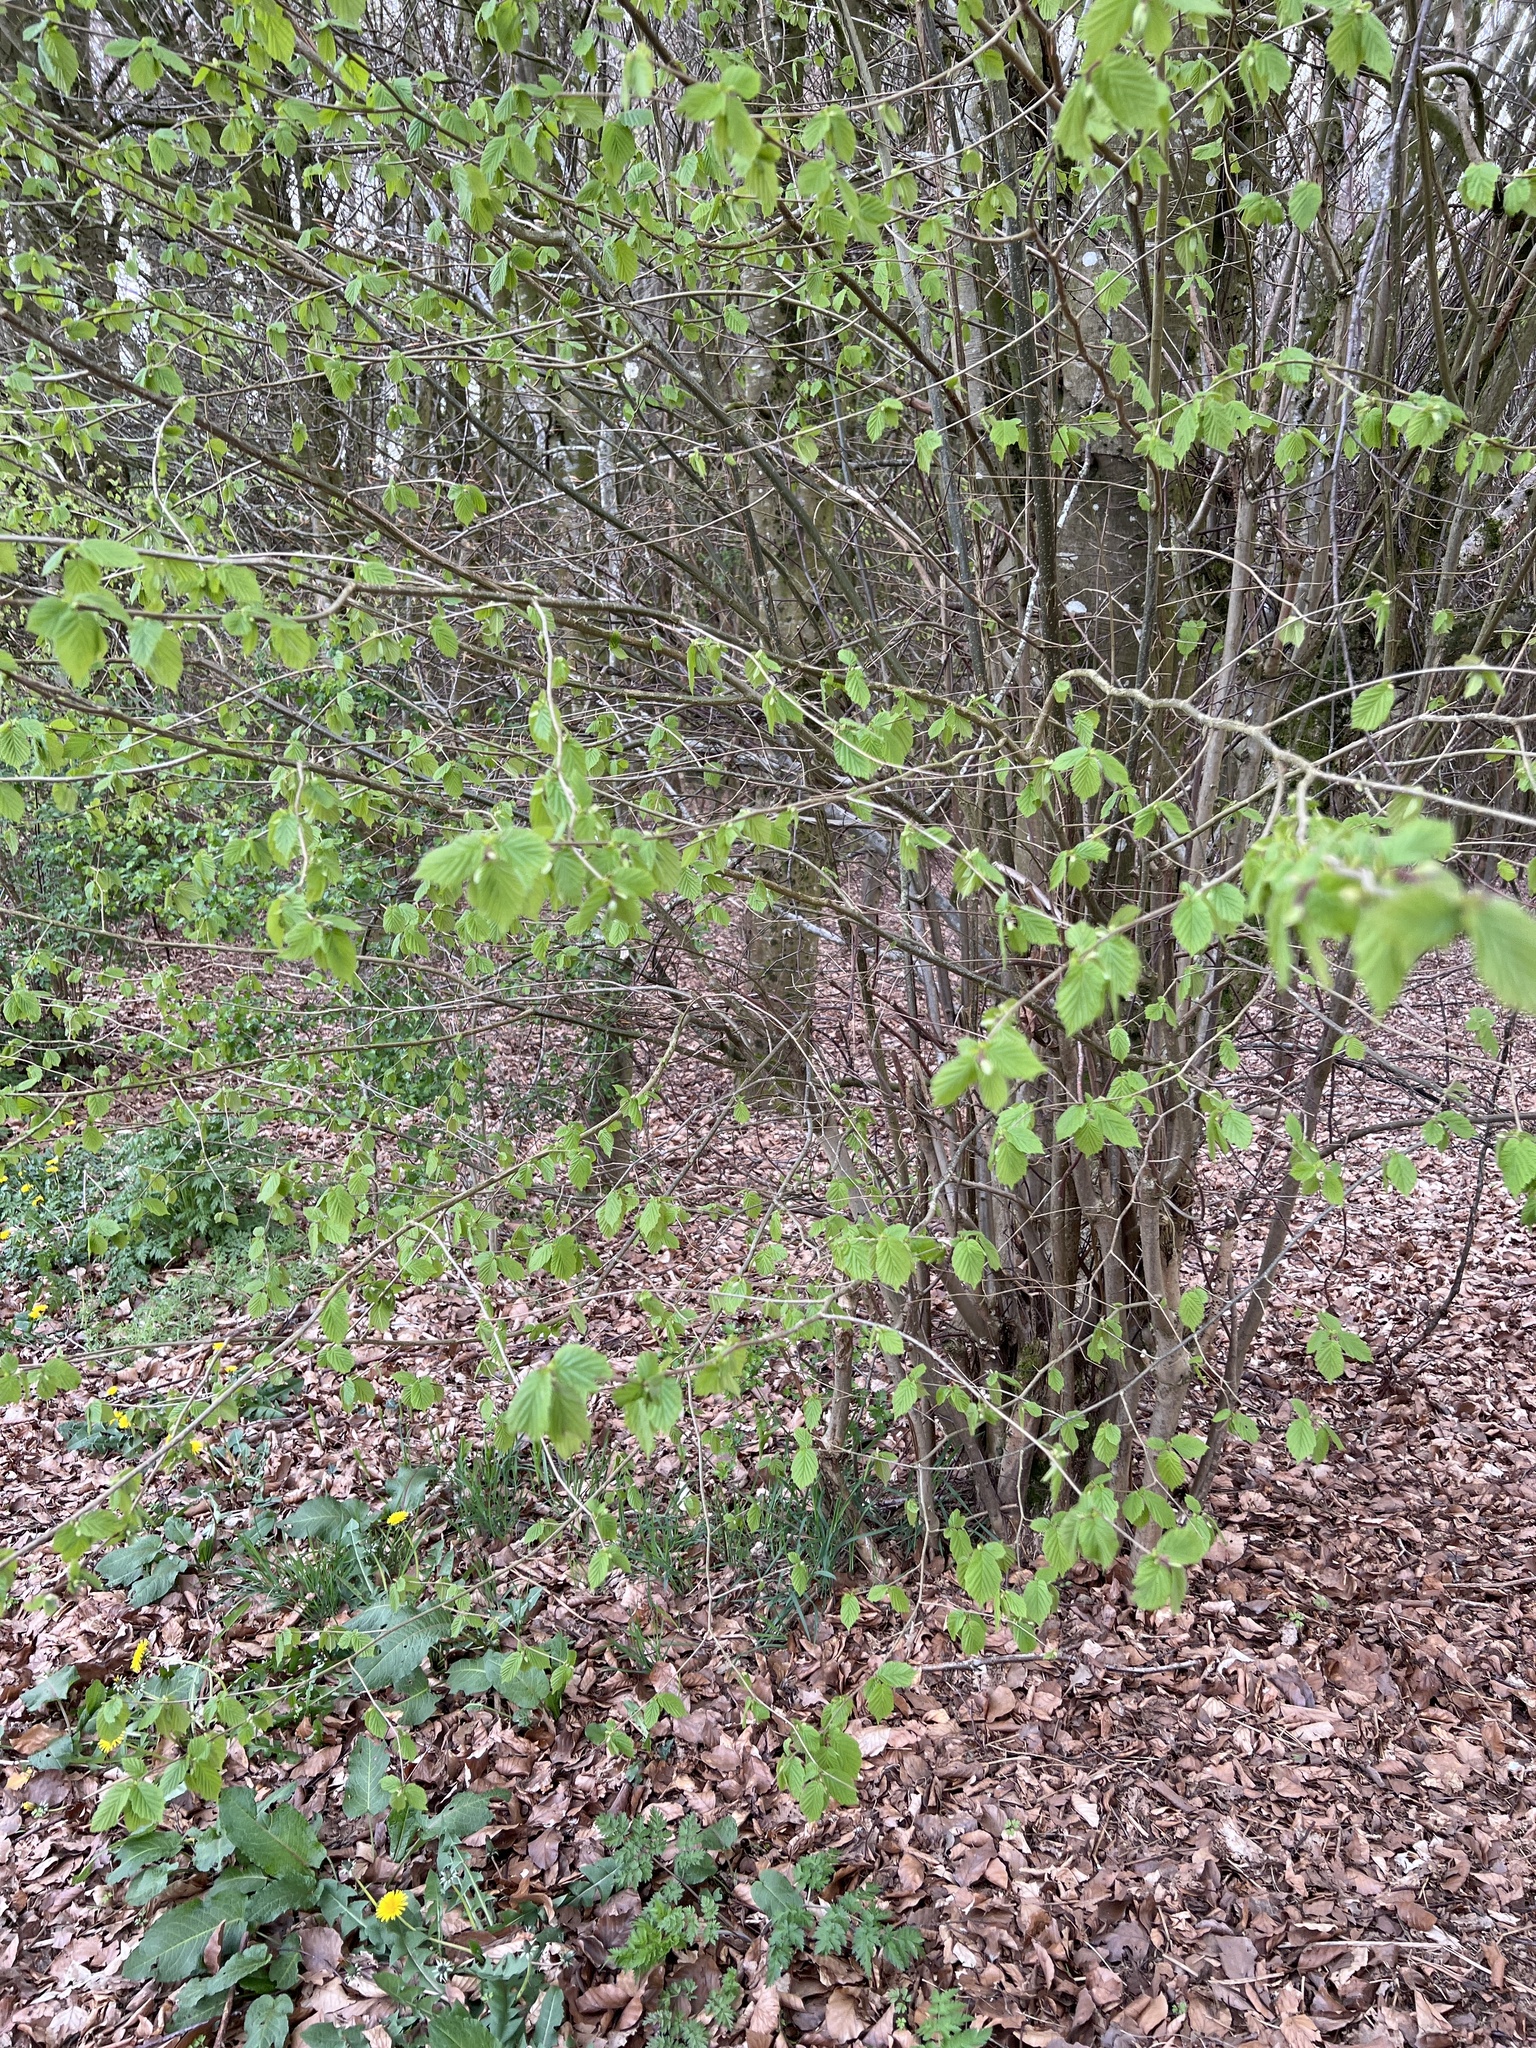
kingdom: Plantae
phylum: Tracheophyta
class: Magnoliopsida
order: Fagales
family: Betulaceae
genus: Corylus
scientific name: Corylus avellana
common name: European hazel
